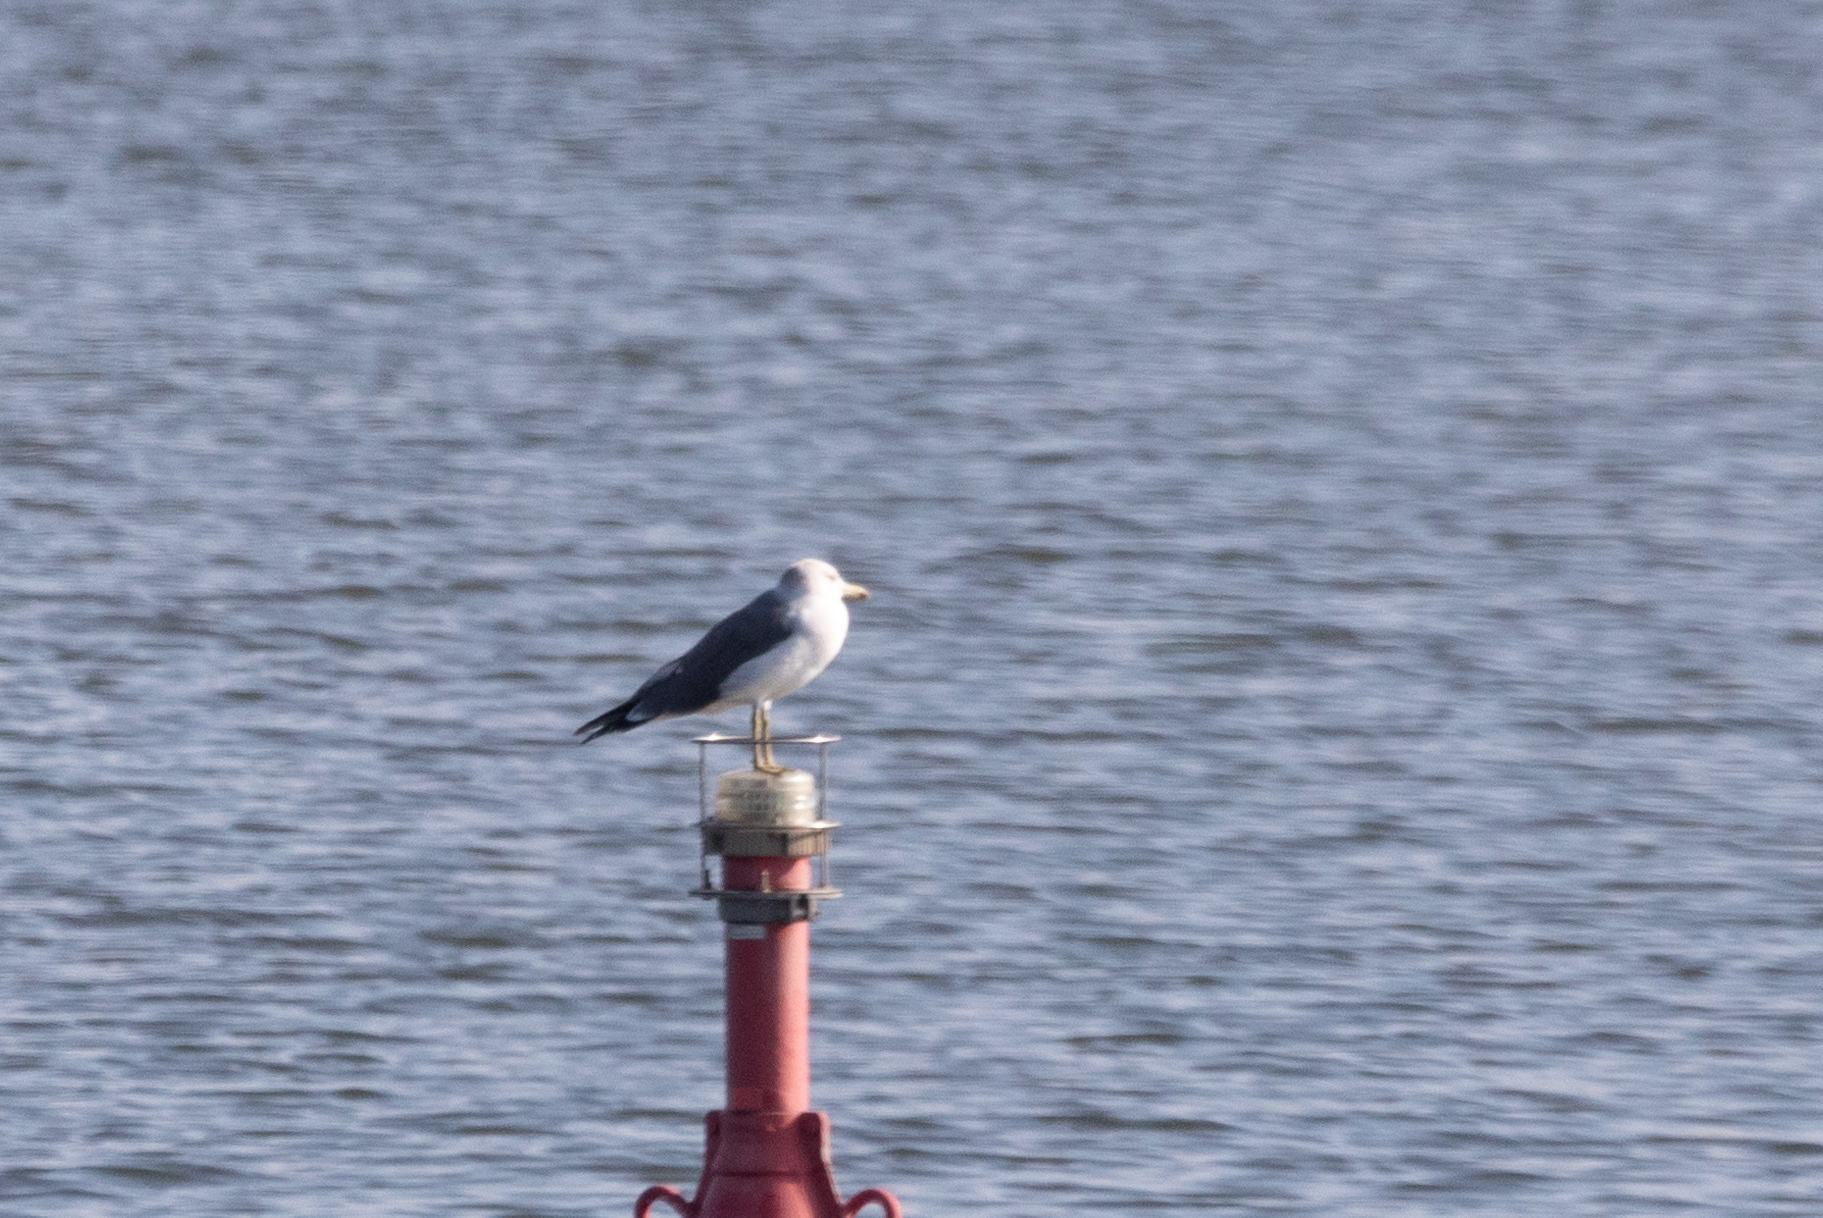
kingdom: Animalia
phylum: Chordata
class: Aves
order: Charadriiformes
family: Laridae
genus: Larus
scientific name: Larus crassirostris
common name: Black-tailed gull
